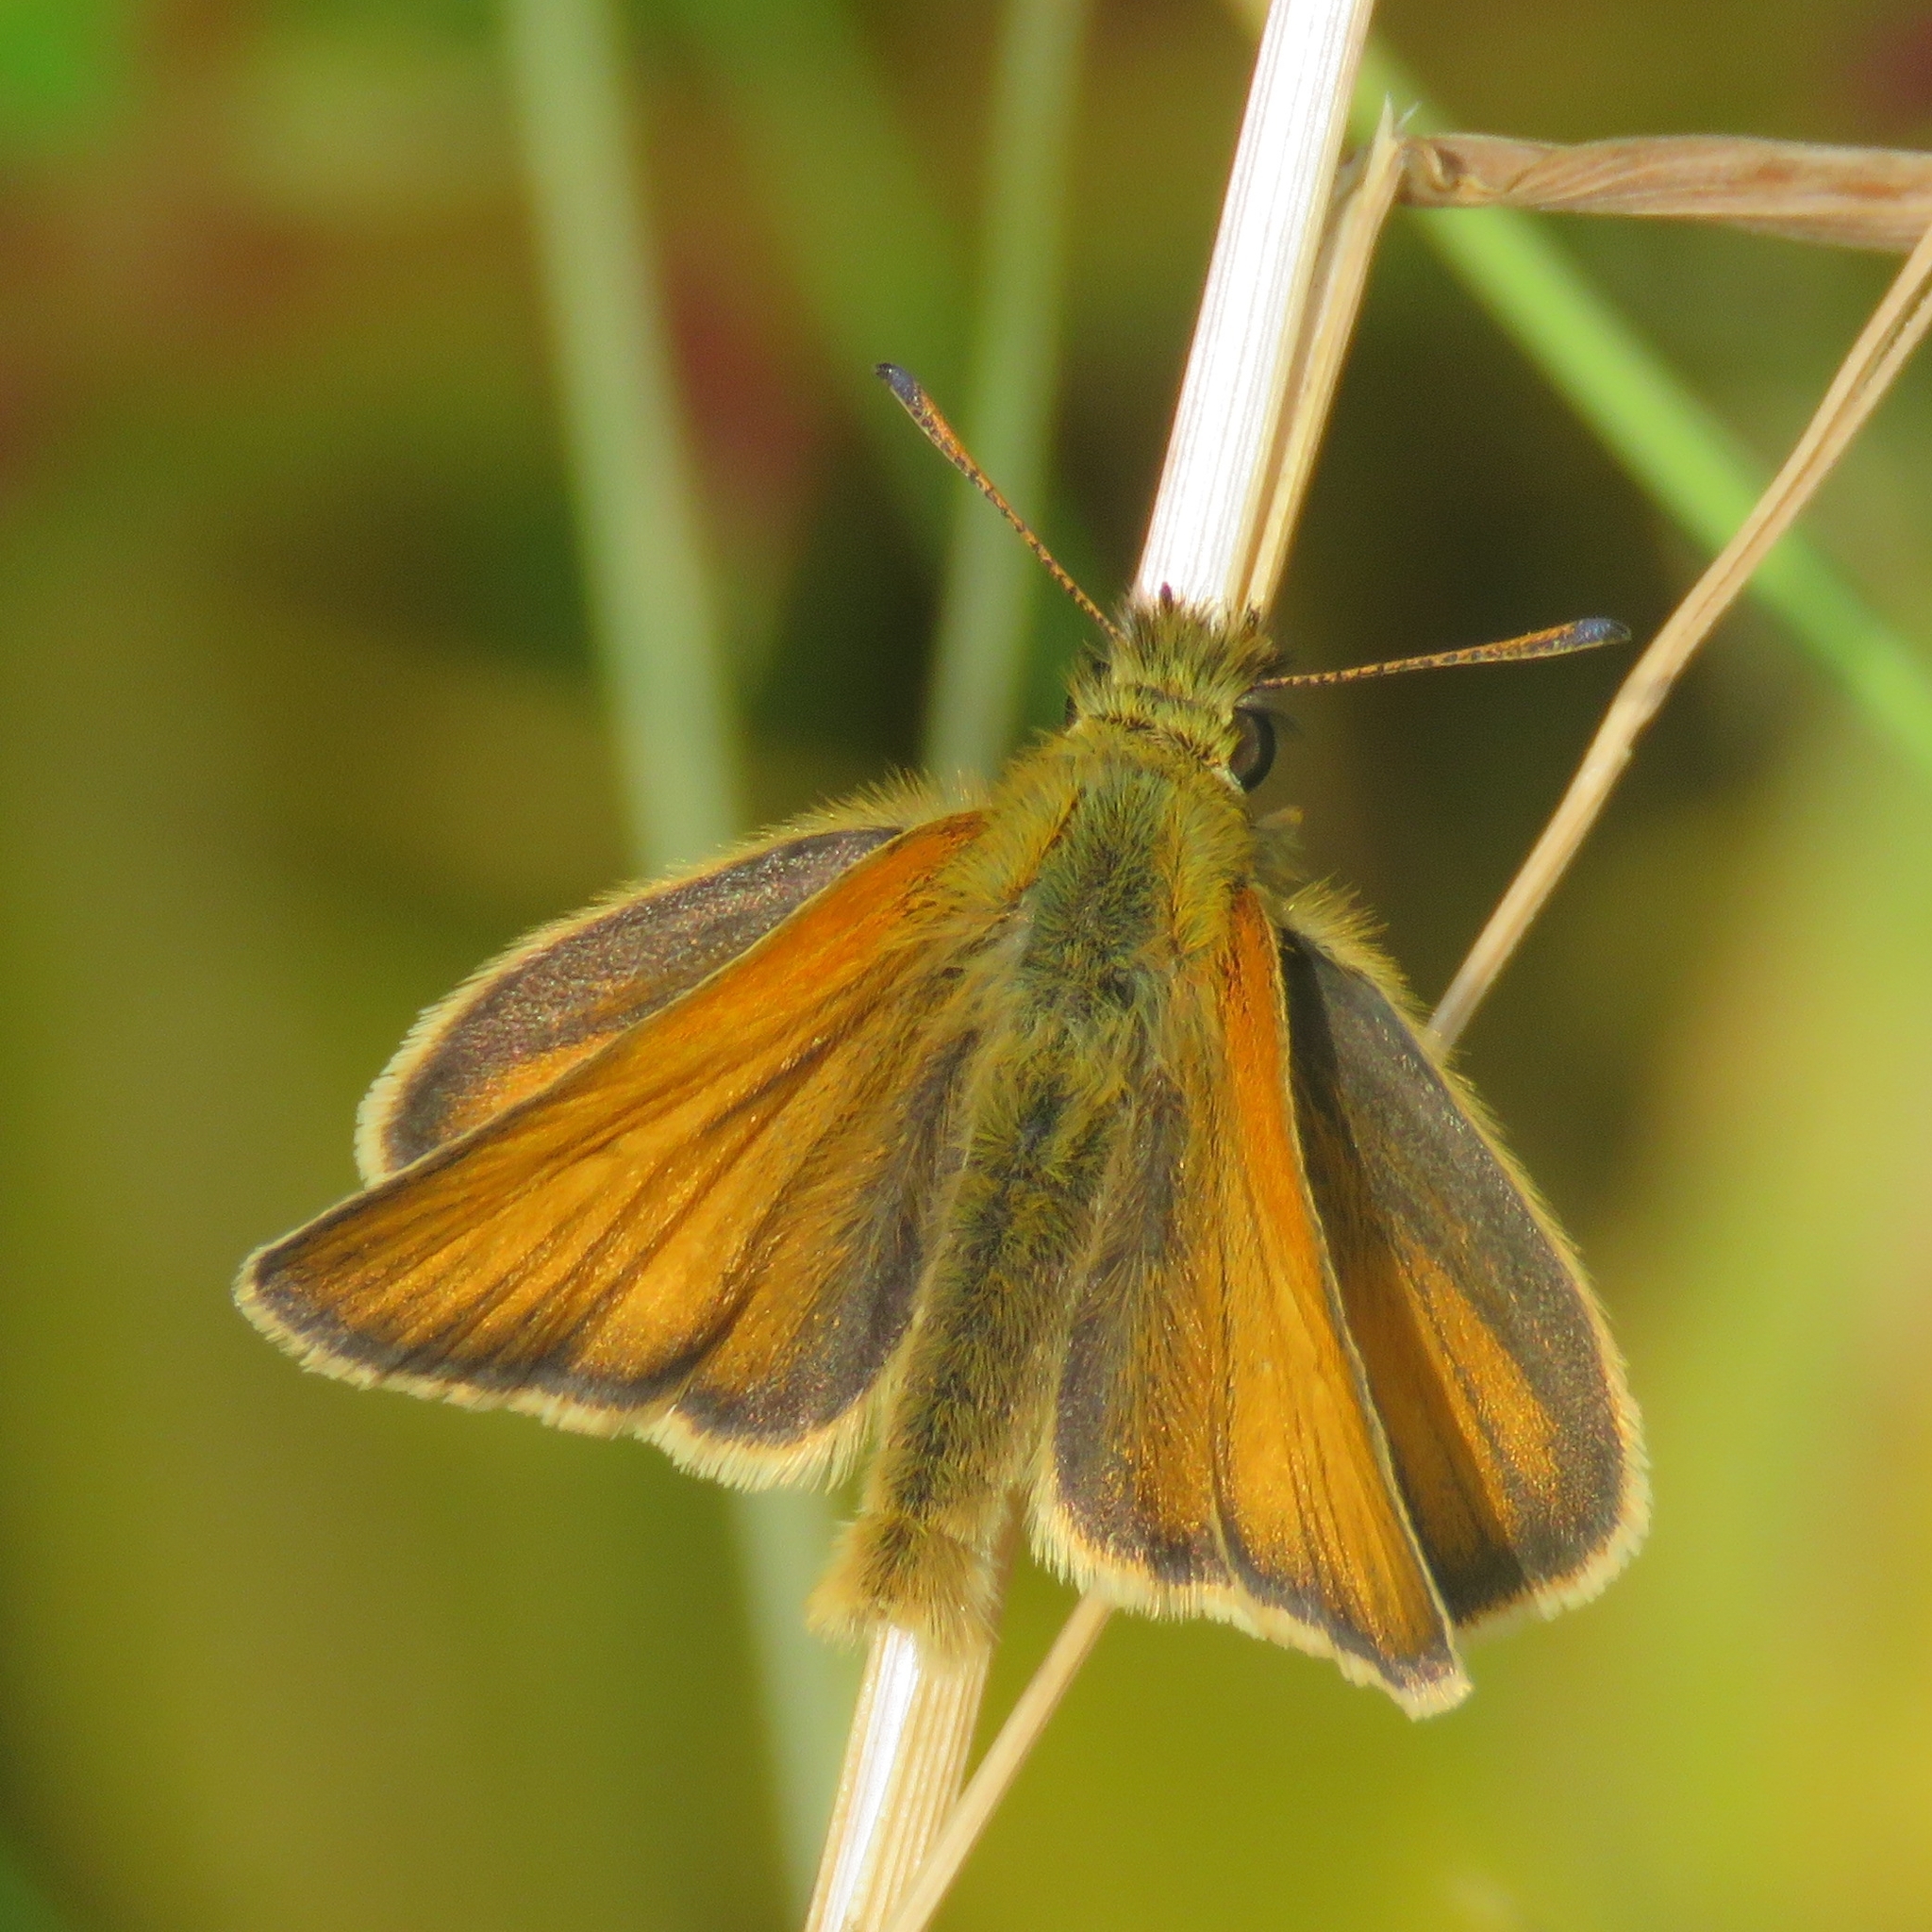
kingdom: Animalia
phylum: Arthropoda
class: Insecta
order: Lepidoptera
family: Hesperiidae
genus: Thymelicus
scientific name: Thymelicus lineola
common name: Essex skipper
